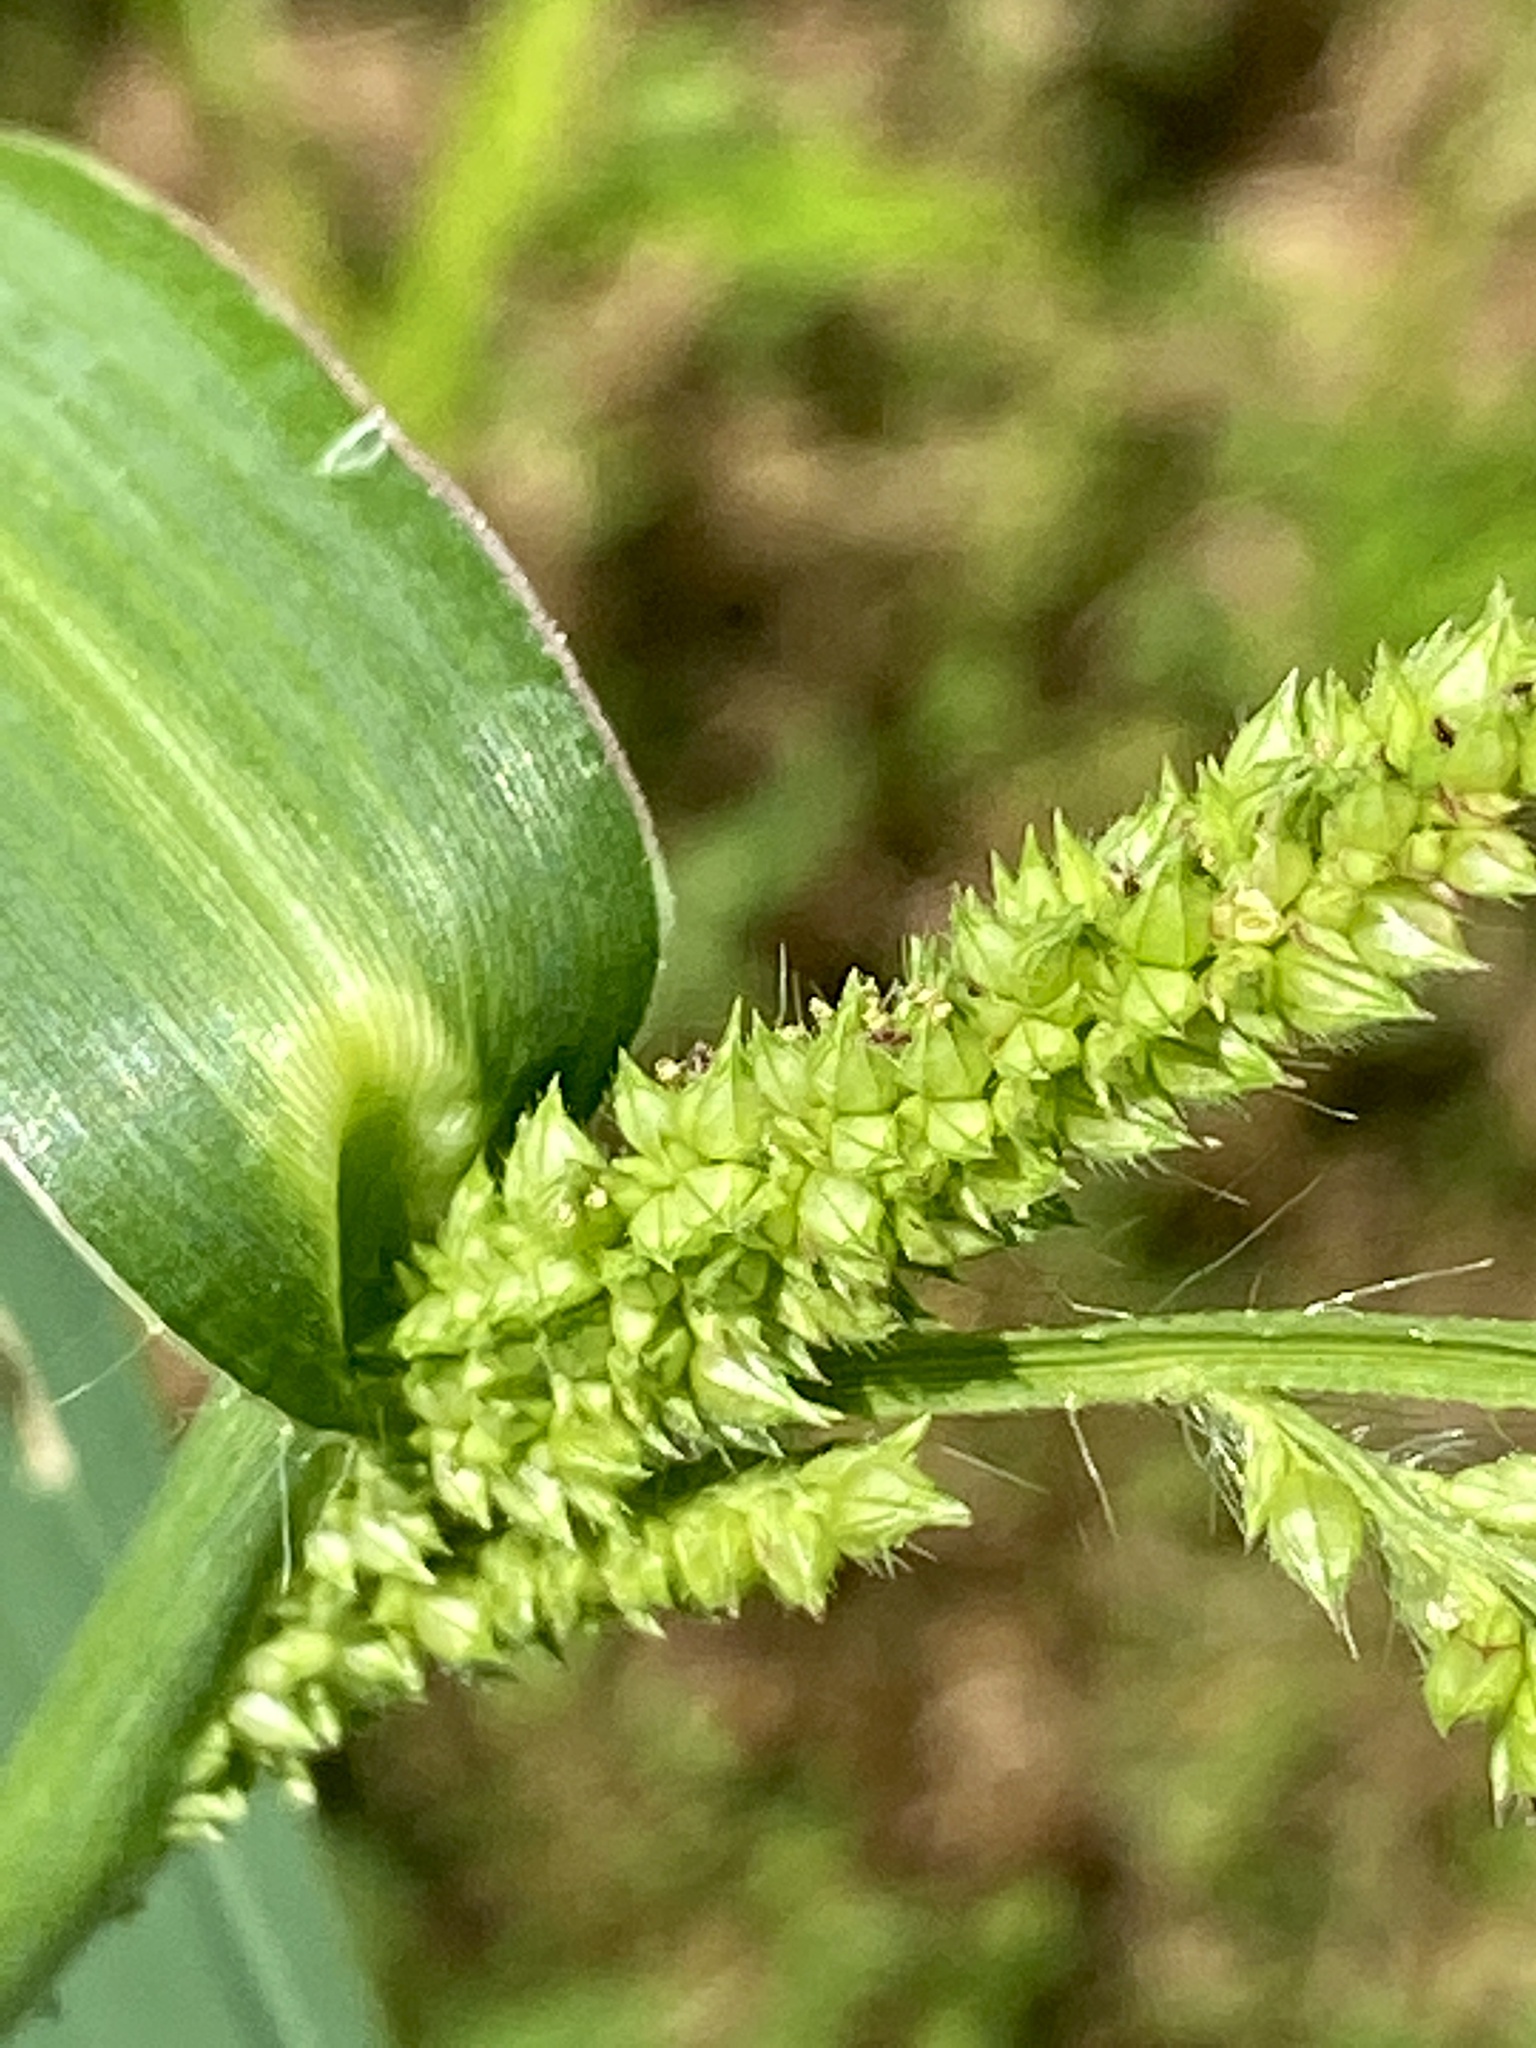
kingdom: Plantae
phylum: Tracheophyta
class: Liliopsida
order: Poales
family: Poaceae
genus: Echinochloa
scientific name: Echinochloa crus-galli
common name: Cockspur
